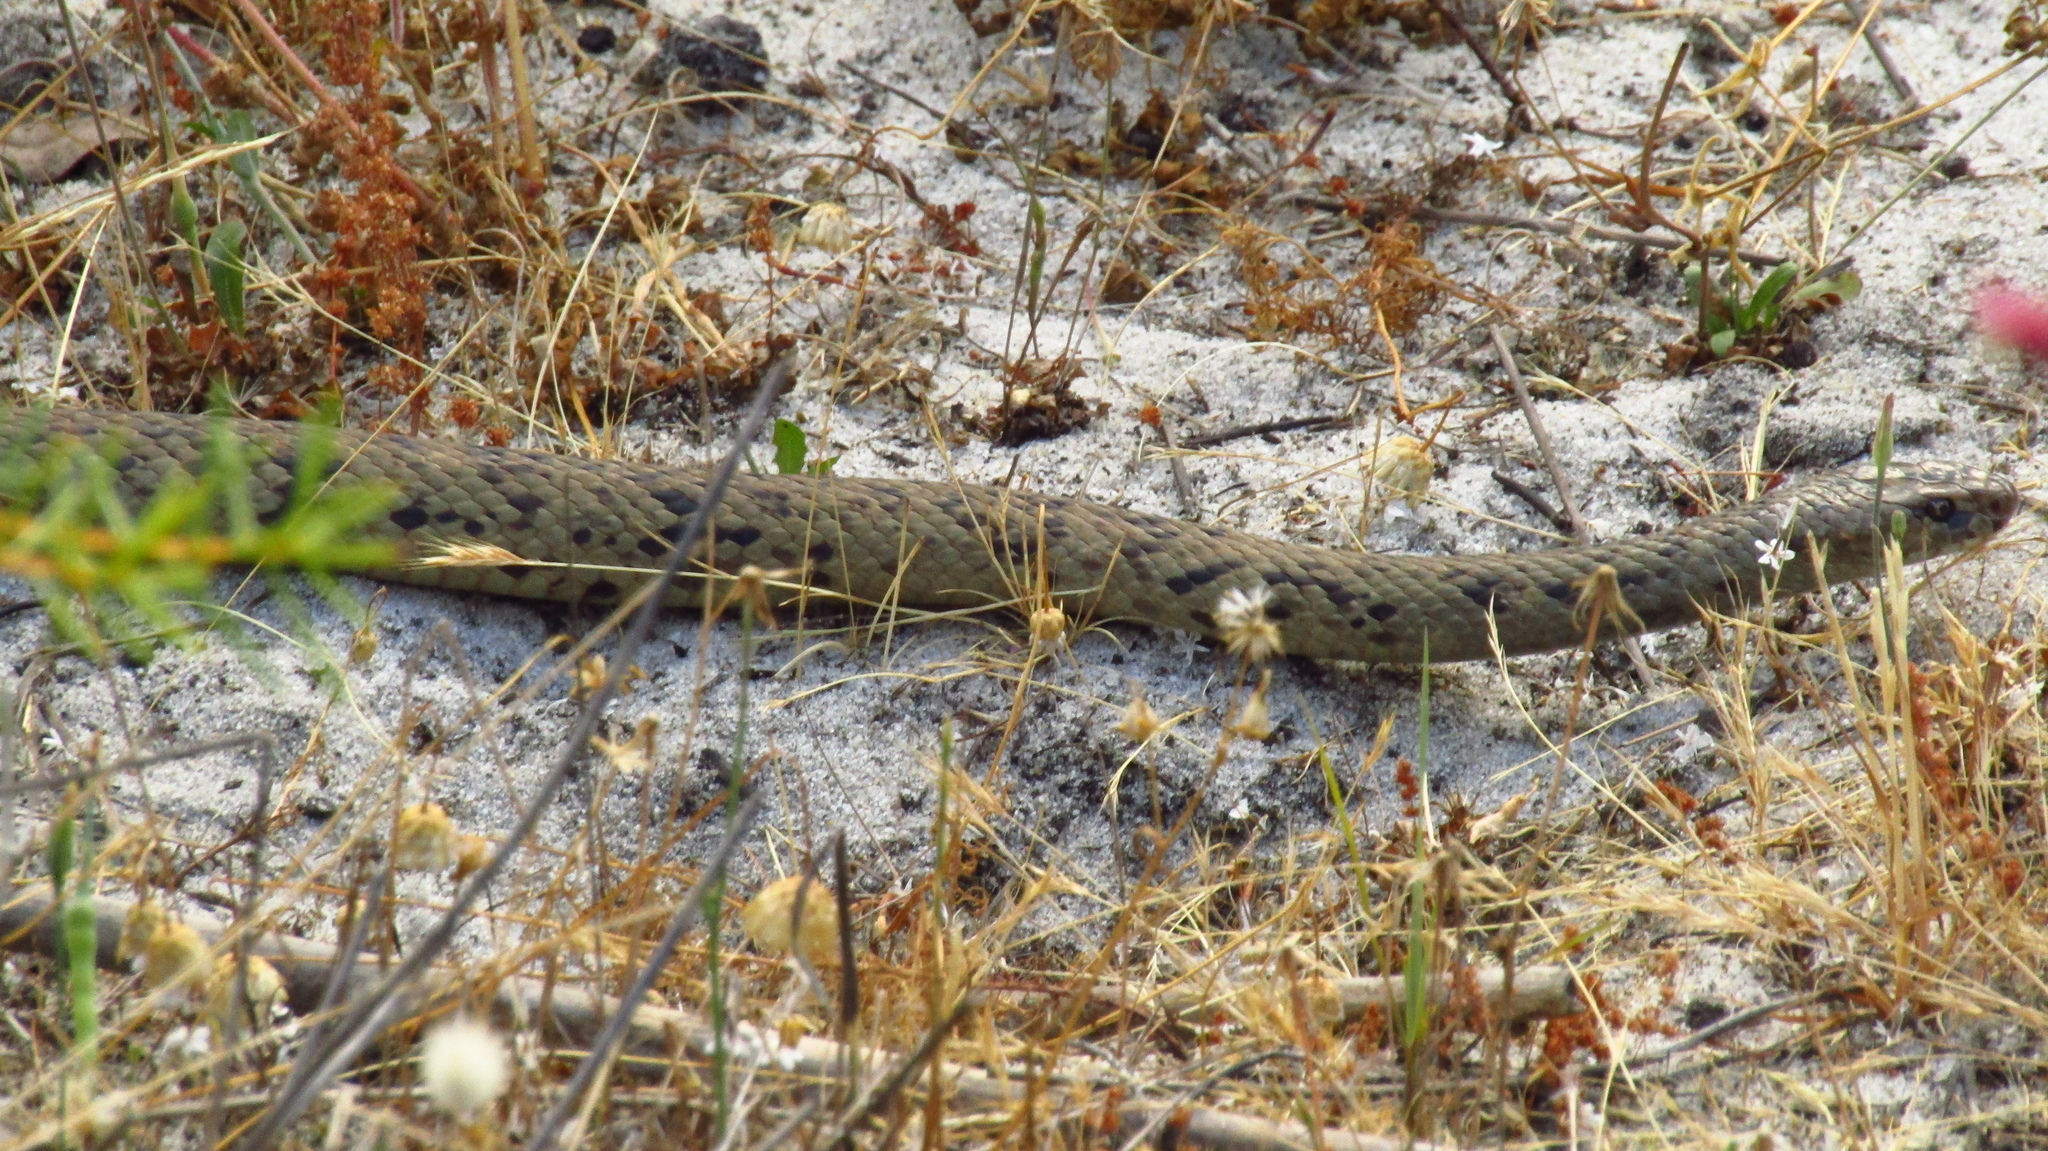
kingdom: Animalia
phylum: Chordata
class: Squamata
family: Elapidae
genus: Pseudonaja
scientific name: Pseudonaja affinis
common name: Dugite
